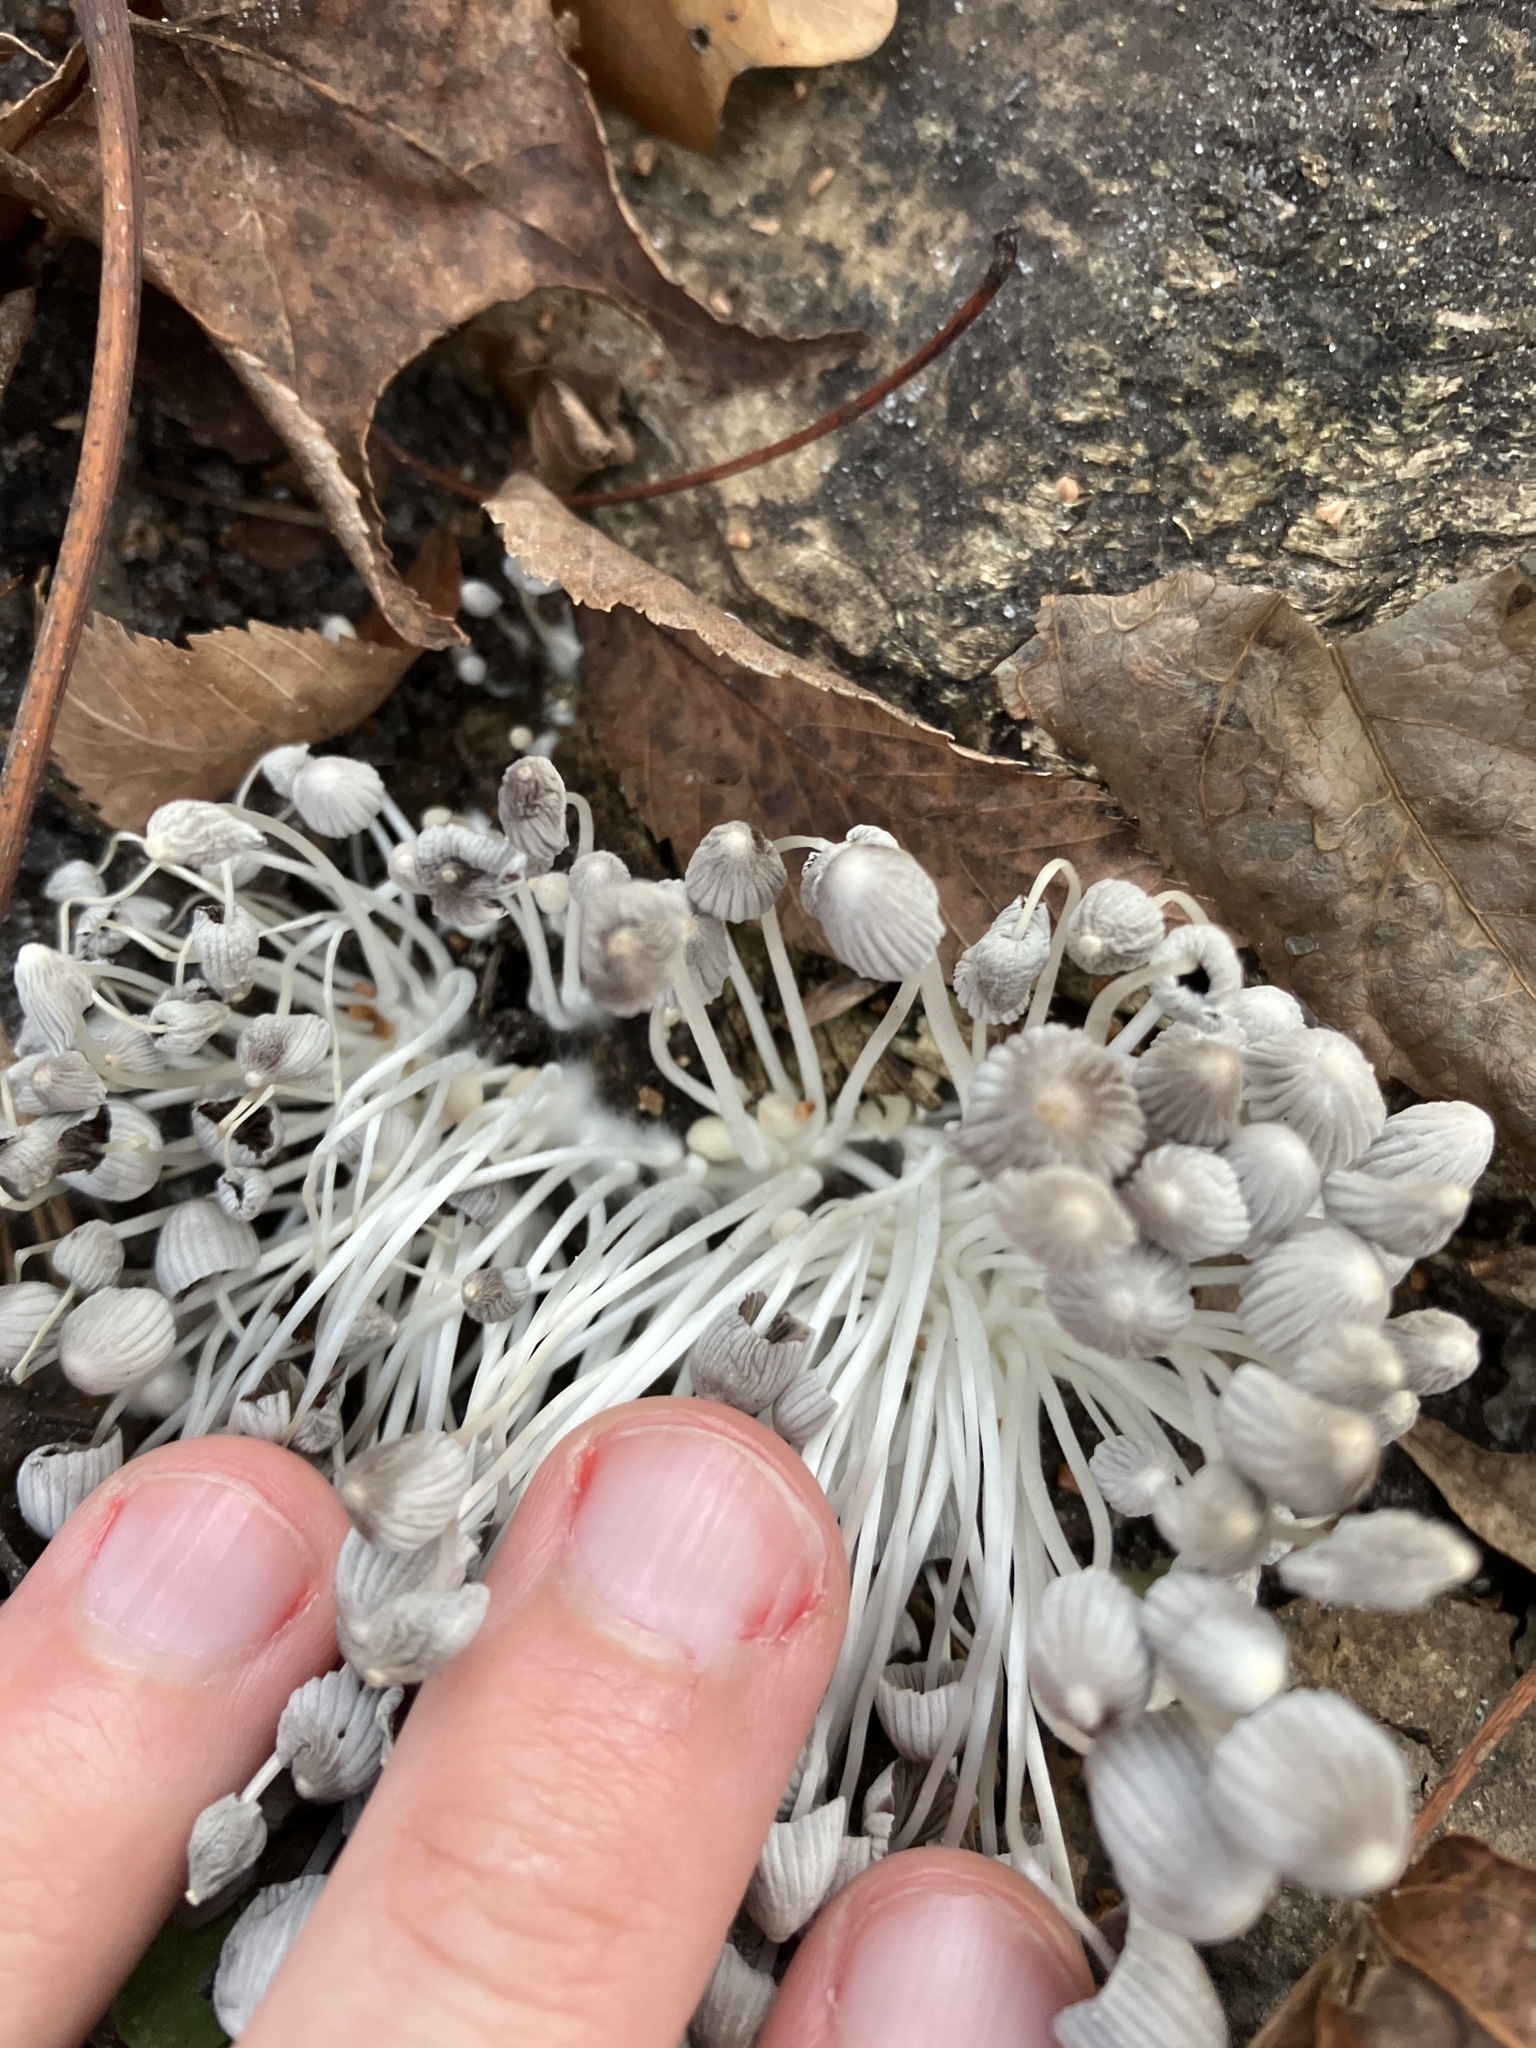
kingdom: Fungi
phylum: Basidiomycota
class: Agaricomycetes
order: Agaricales
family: Psathyrellaceae
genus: Coprinellus
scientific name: Coprinellus disseminatus
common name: Fairies' bonnets
